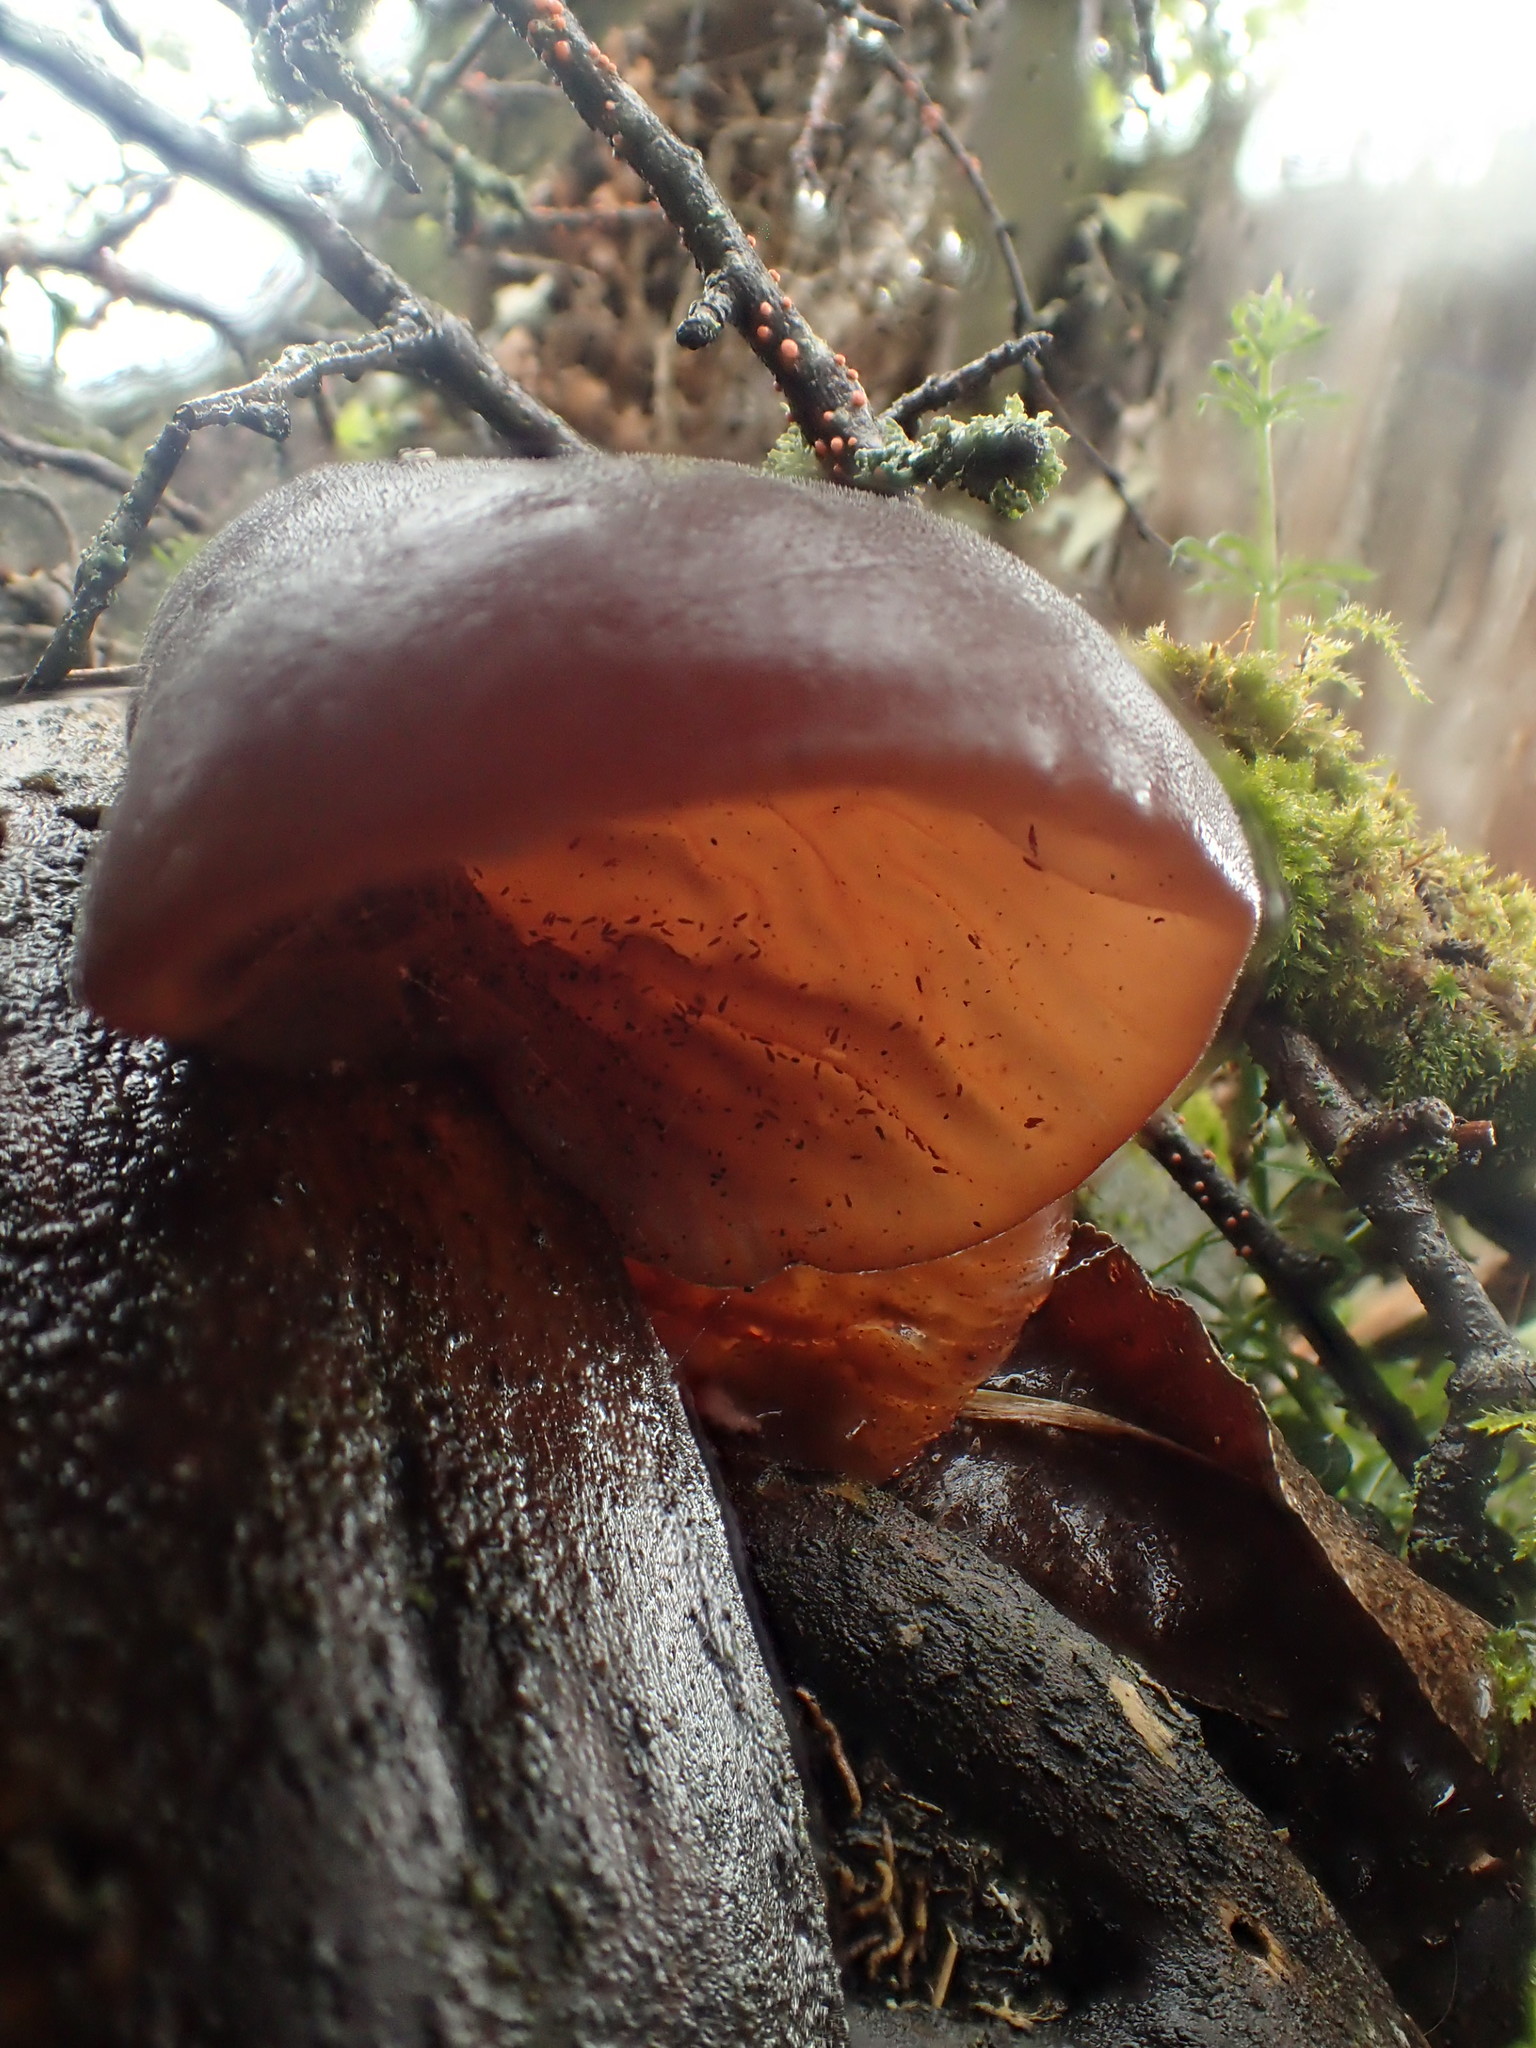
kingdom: Fungi
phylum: Basidiomycota
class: Agaricomycetes
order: Auriculariales
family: Auriculariaceae
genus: Auricularia
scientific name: Auricularia auricula-judae
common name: Jelly ear
